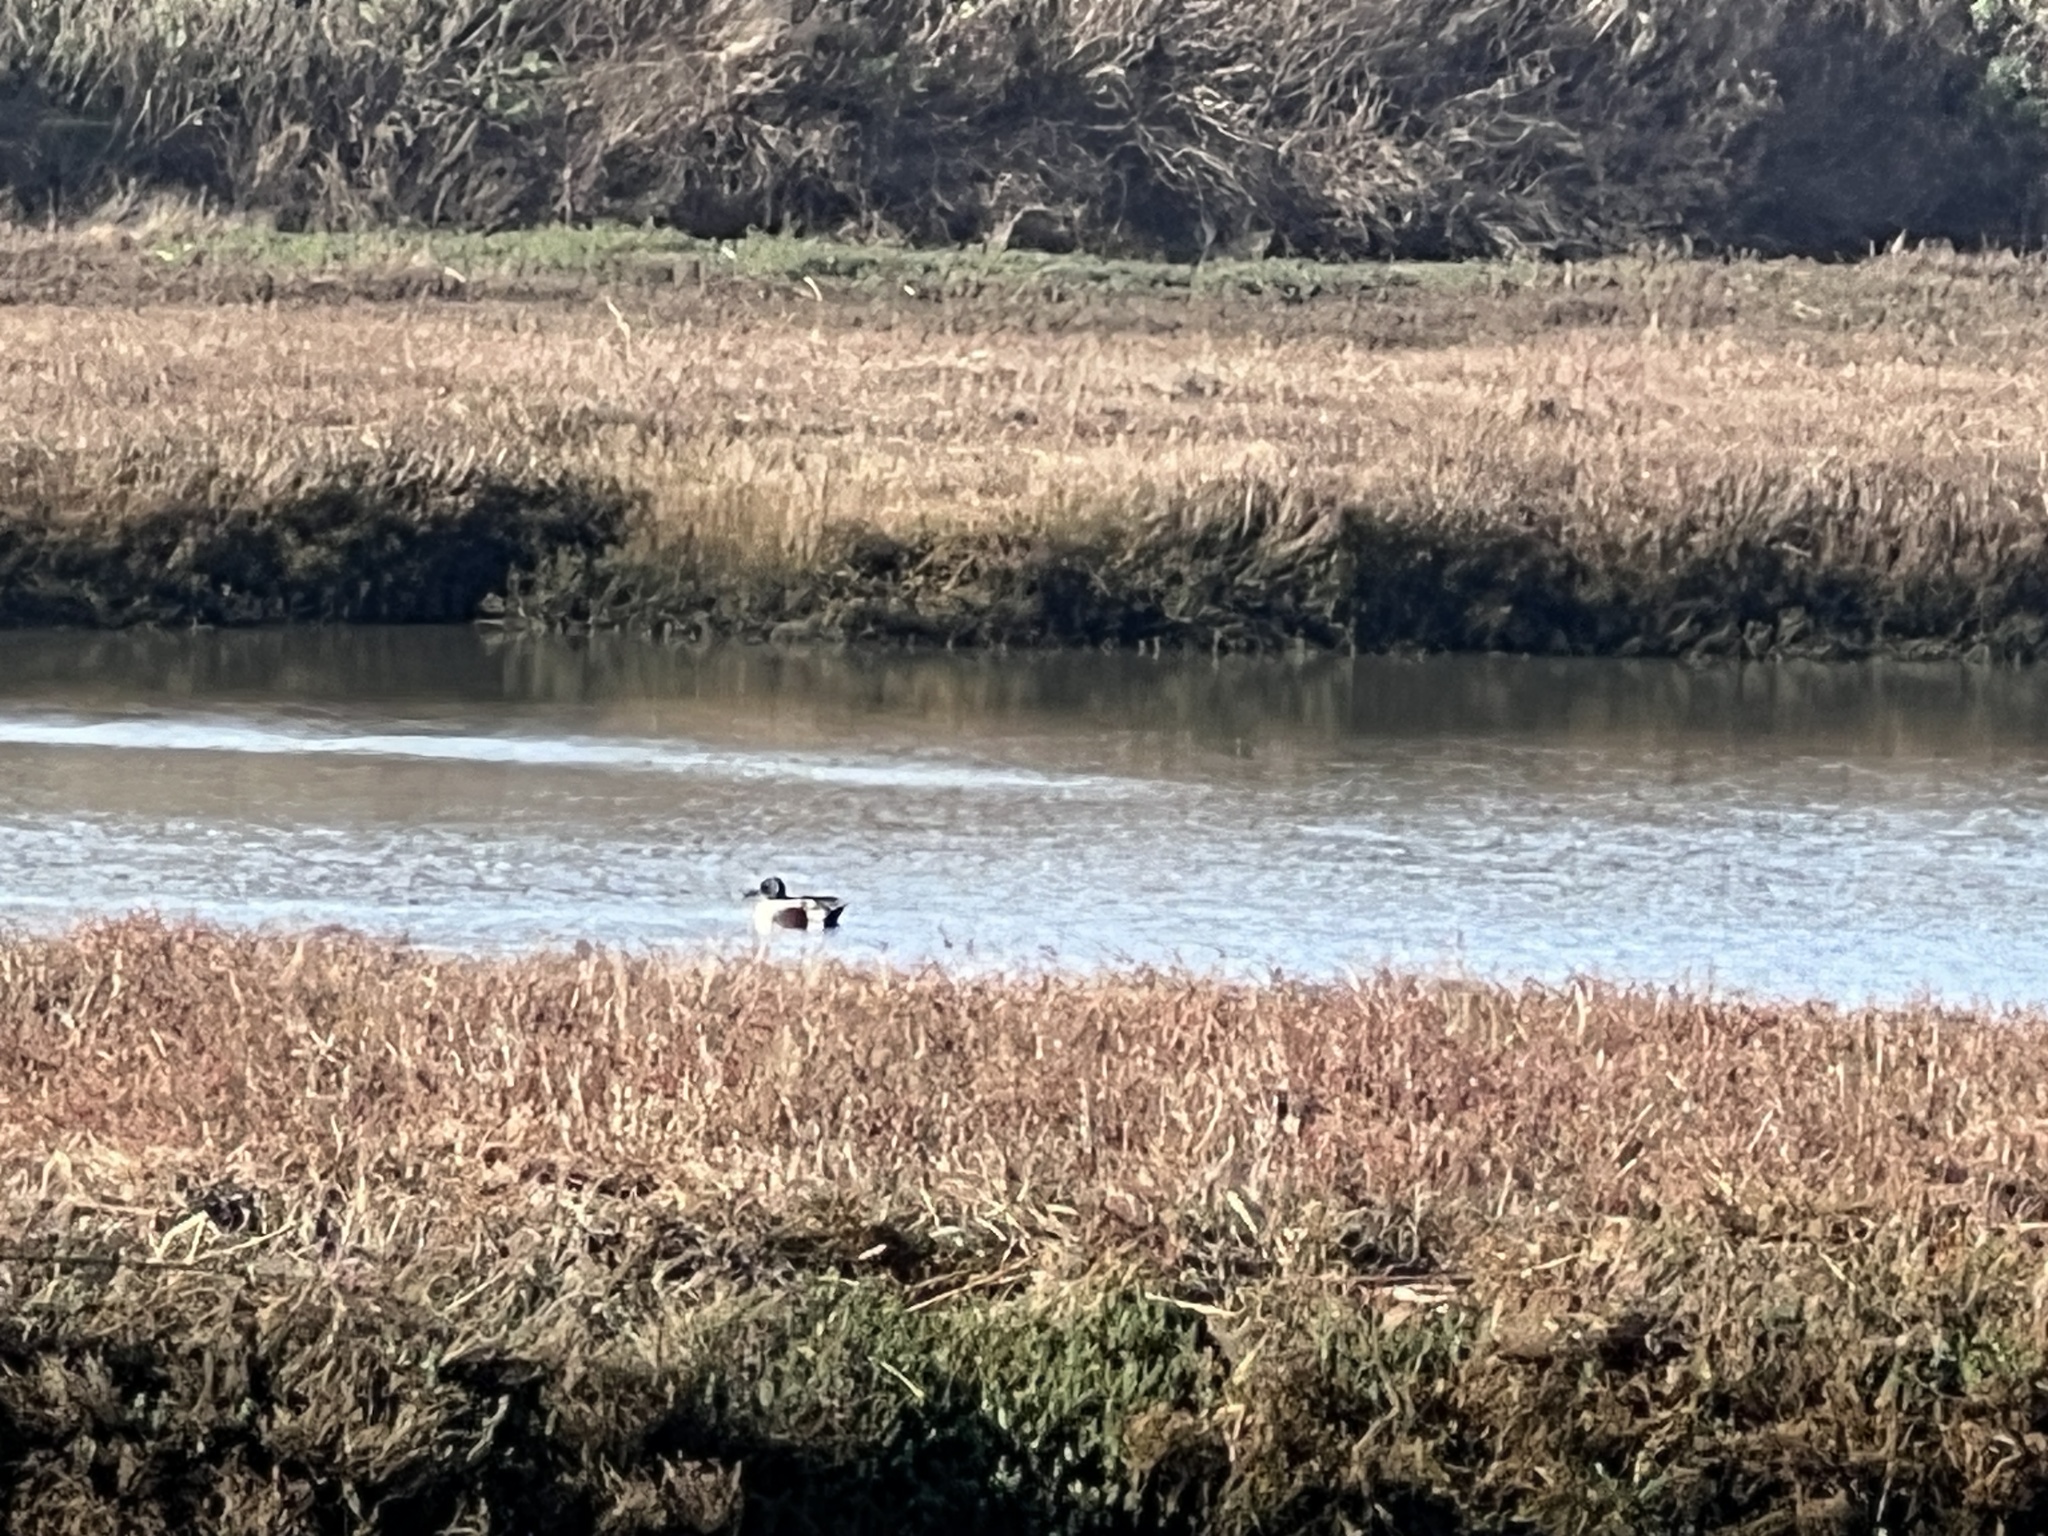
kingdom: Animalia
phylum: Chordata
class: Aves
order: Anseriformes
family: Anatidae
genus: Spatula
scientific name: Spatula clypeata
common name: Northern shoveler
